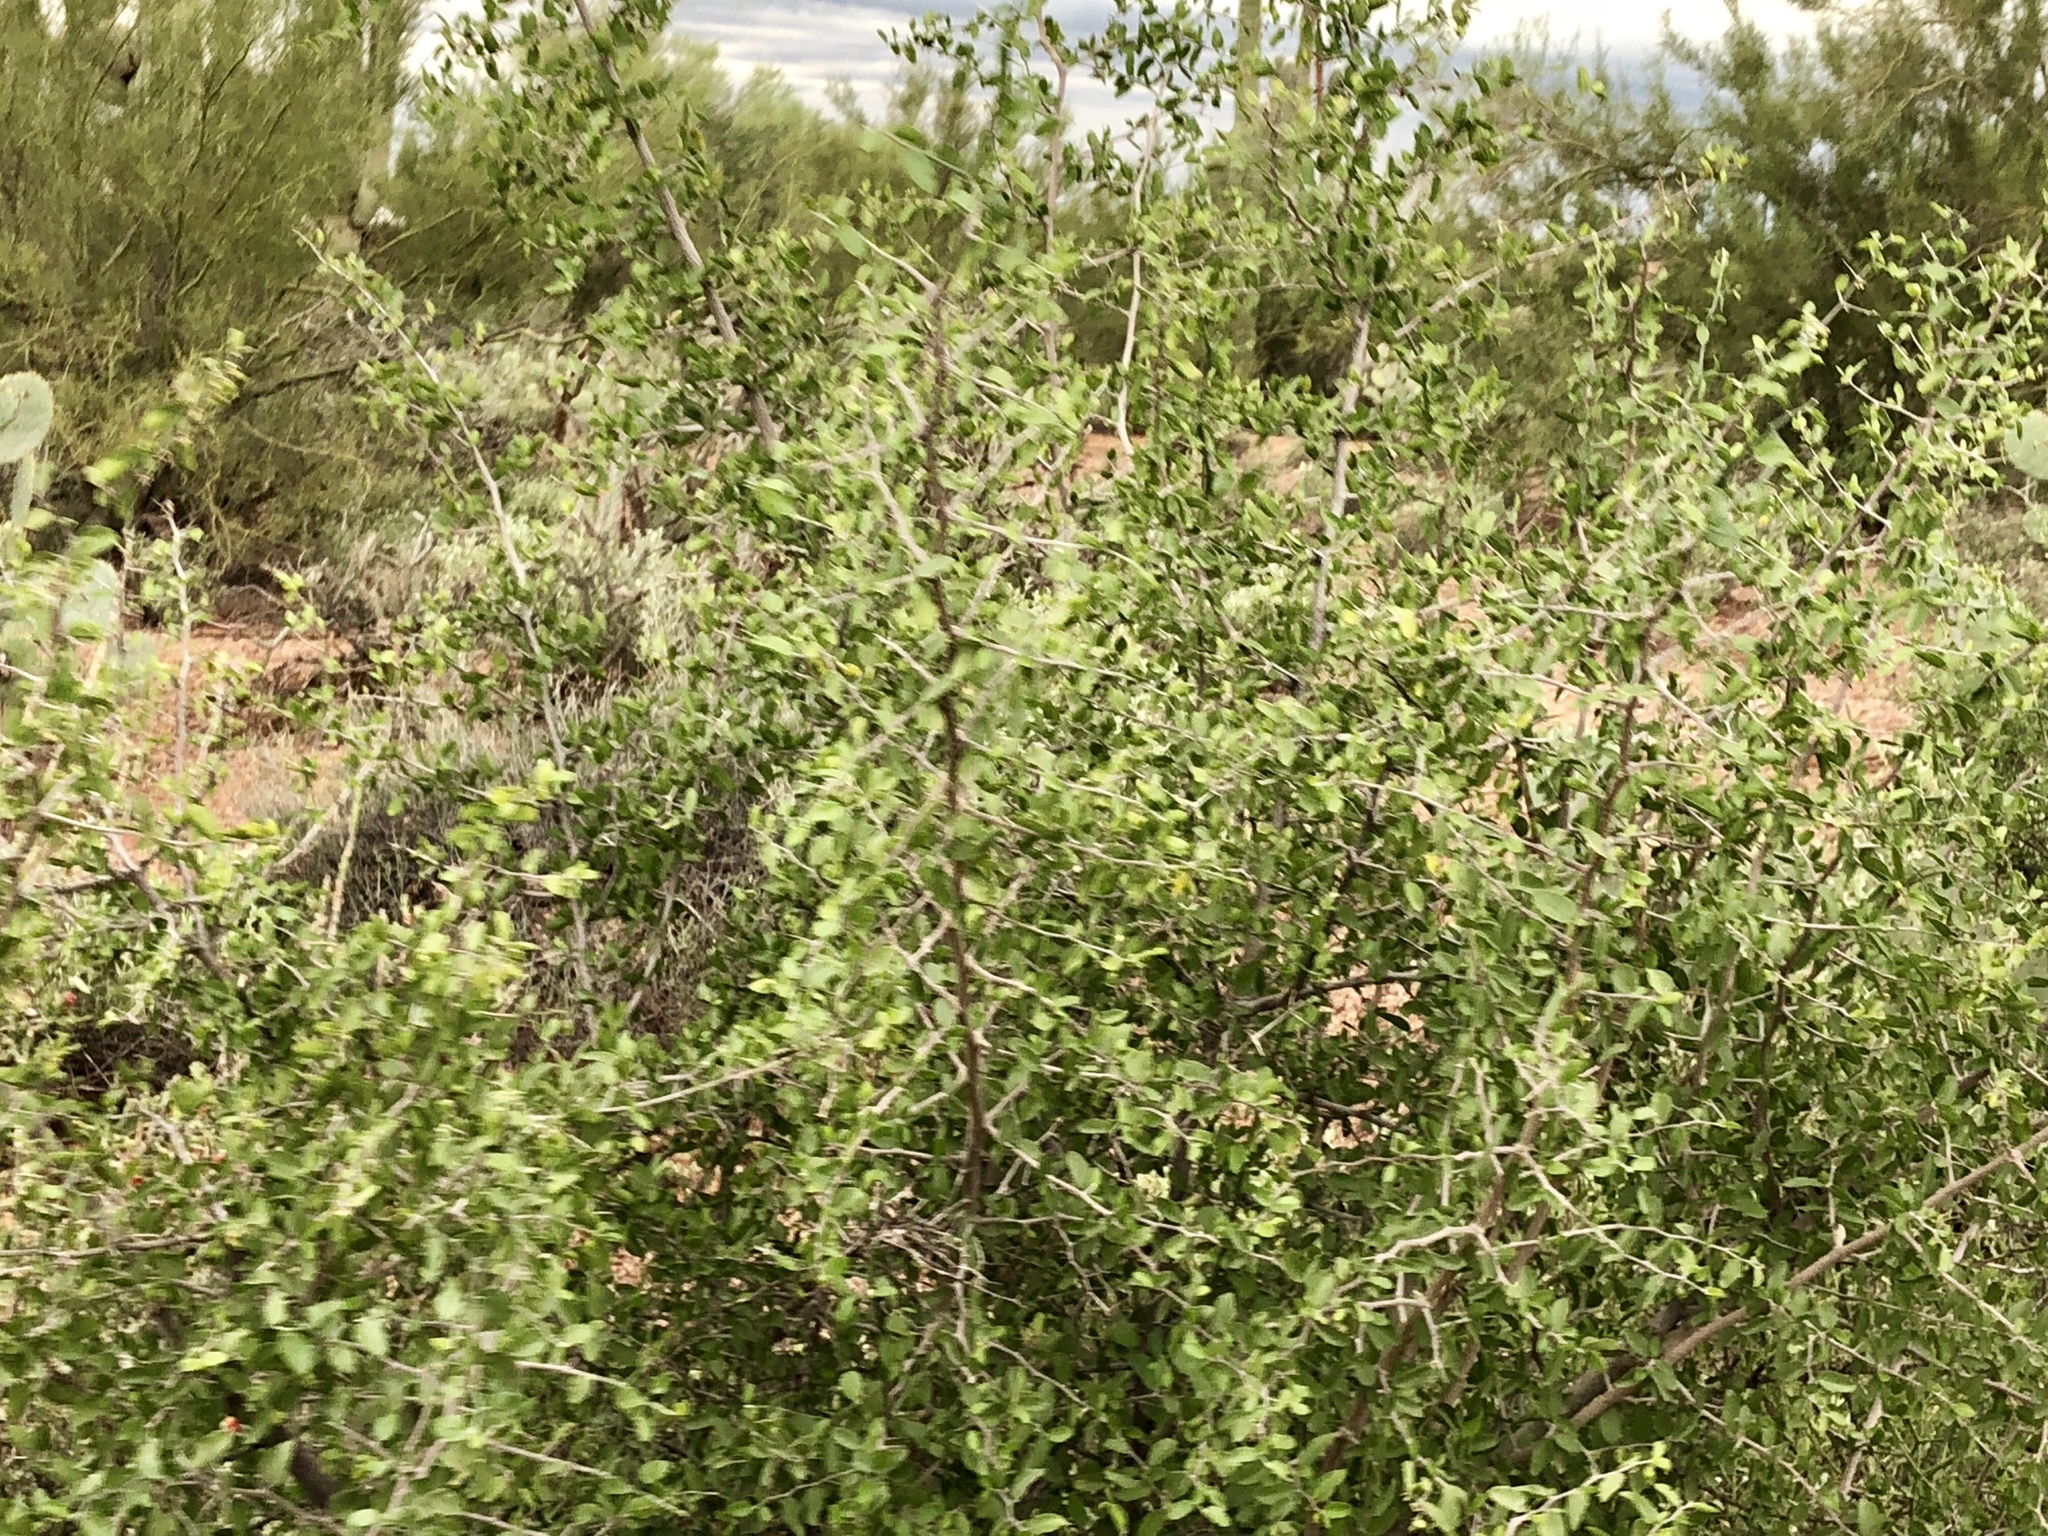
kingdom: Plantae
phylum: Tracheophyta
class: Magnoliopsida
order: Rosales
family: Cannabaceae
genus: Celtis
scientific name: Celtis pallida
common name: Desert hackberry
